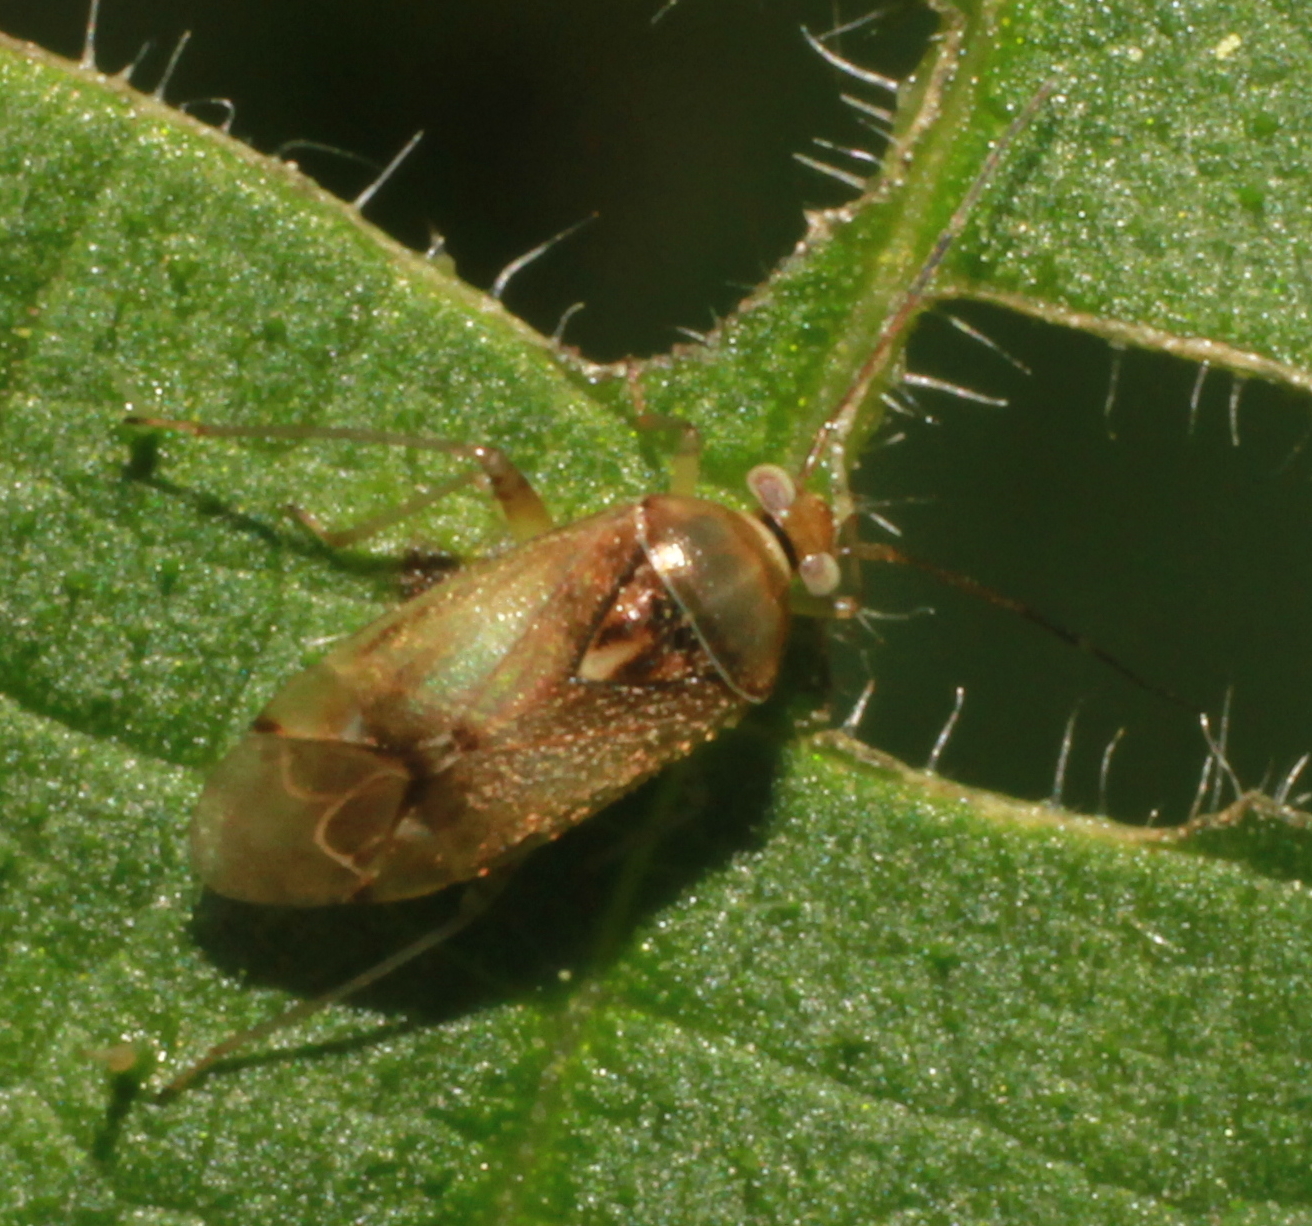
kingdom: Animalia
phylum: Arthropoda
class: Insecta
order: Hemiptera
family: Miridae
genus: Pinalitus
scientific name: Pinalitus cervinus
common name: Plant bug
